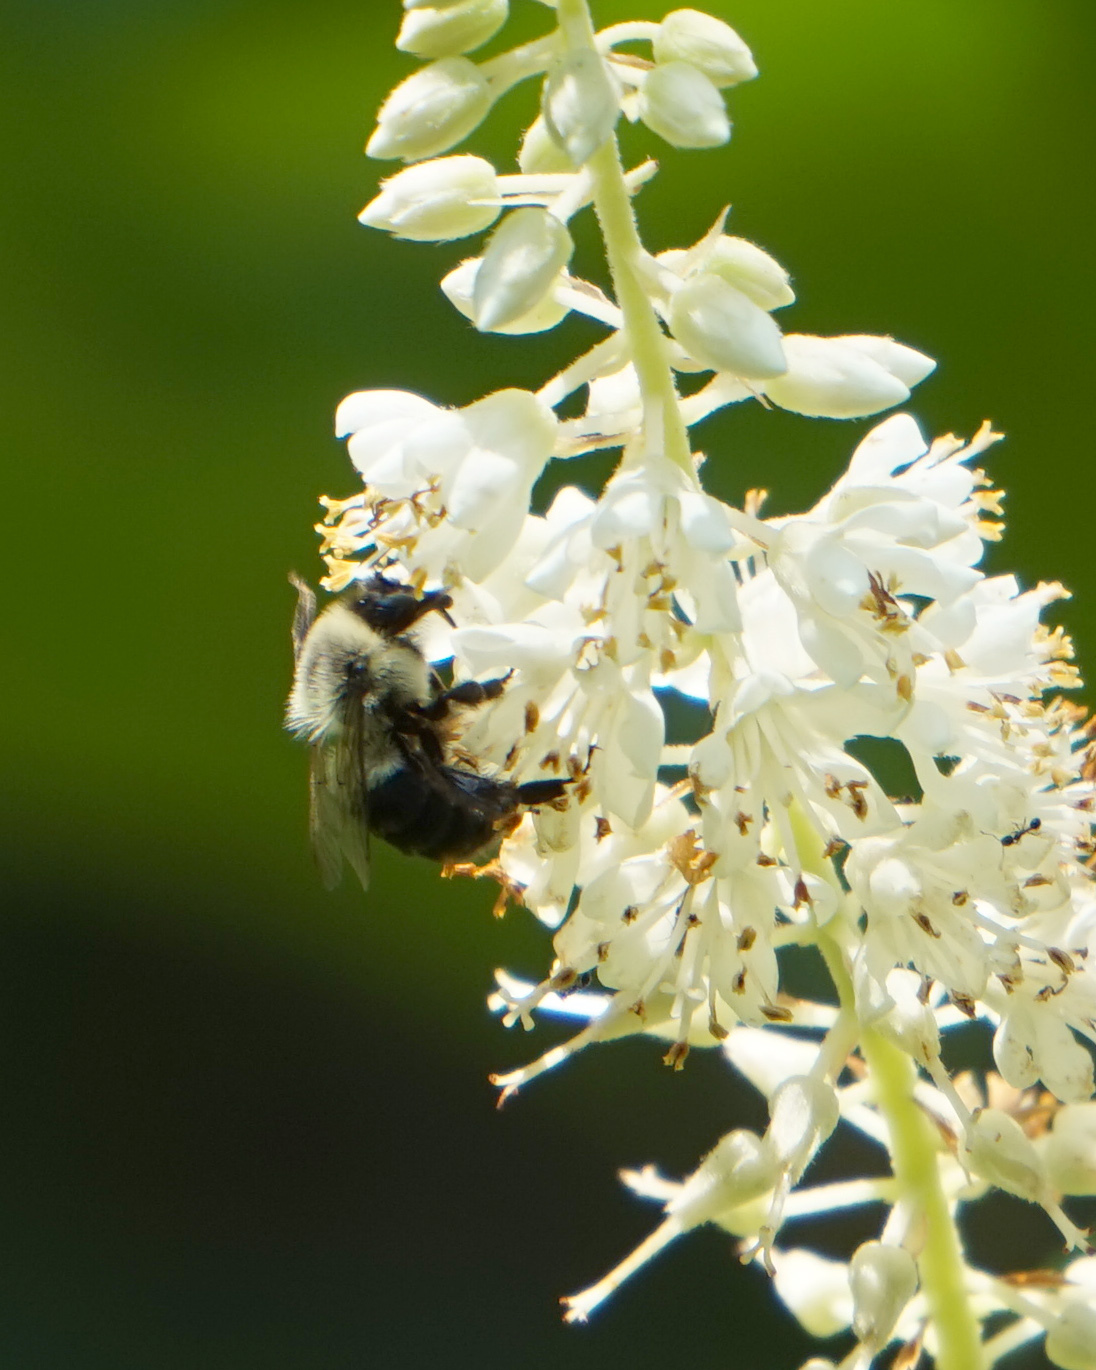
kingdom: Animalia
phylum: Arthropoda
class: Insecta
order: Hymenoptera
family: Apidae
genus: Bombus
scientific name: Bombus impatiens
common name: Common eastern bumble bee
